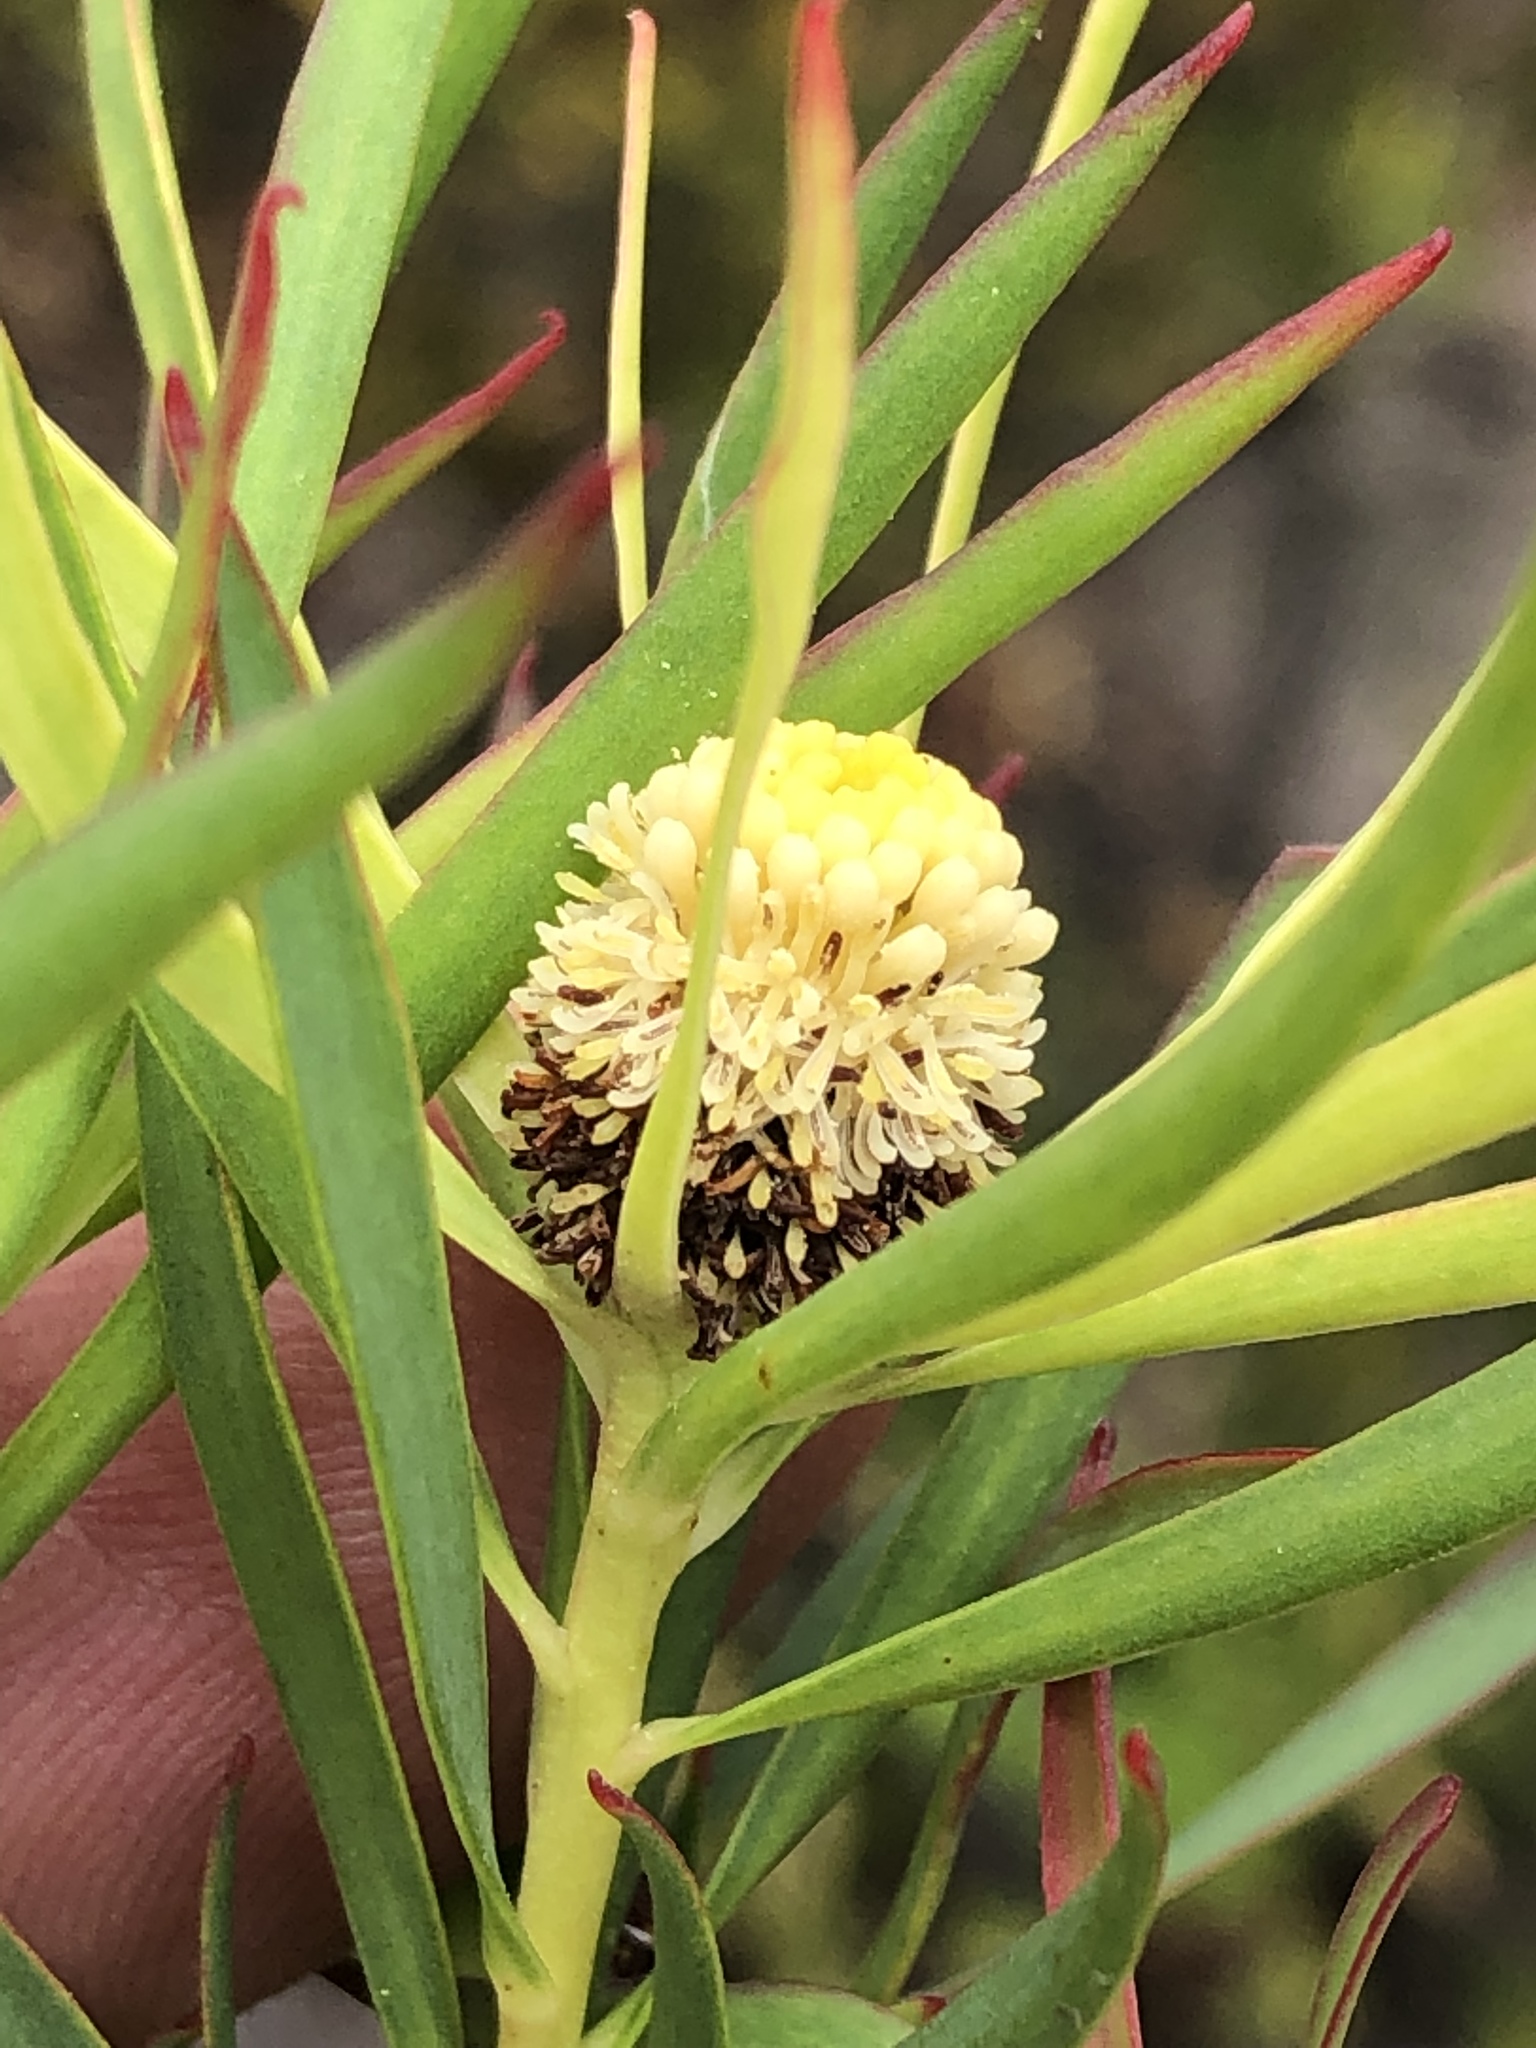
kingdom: Plantae
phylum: Tracheophyta
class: Magnoliopsida
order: Proteales
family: Proteaceae
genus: Leucadendron
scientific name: Leucadendron salignum
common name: Common sunshine conebush
